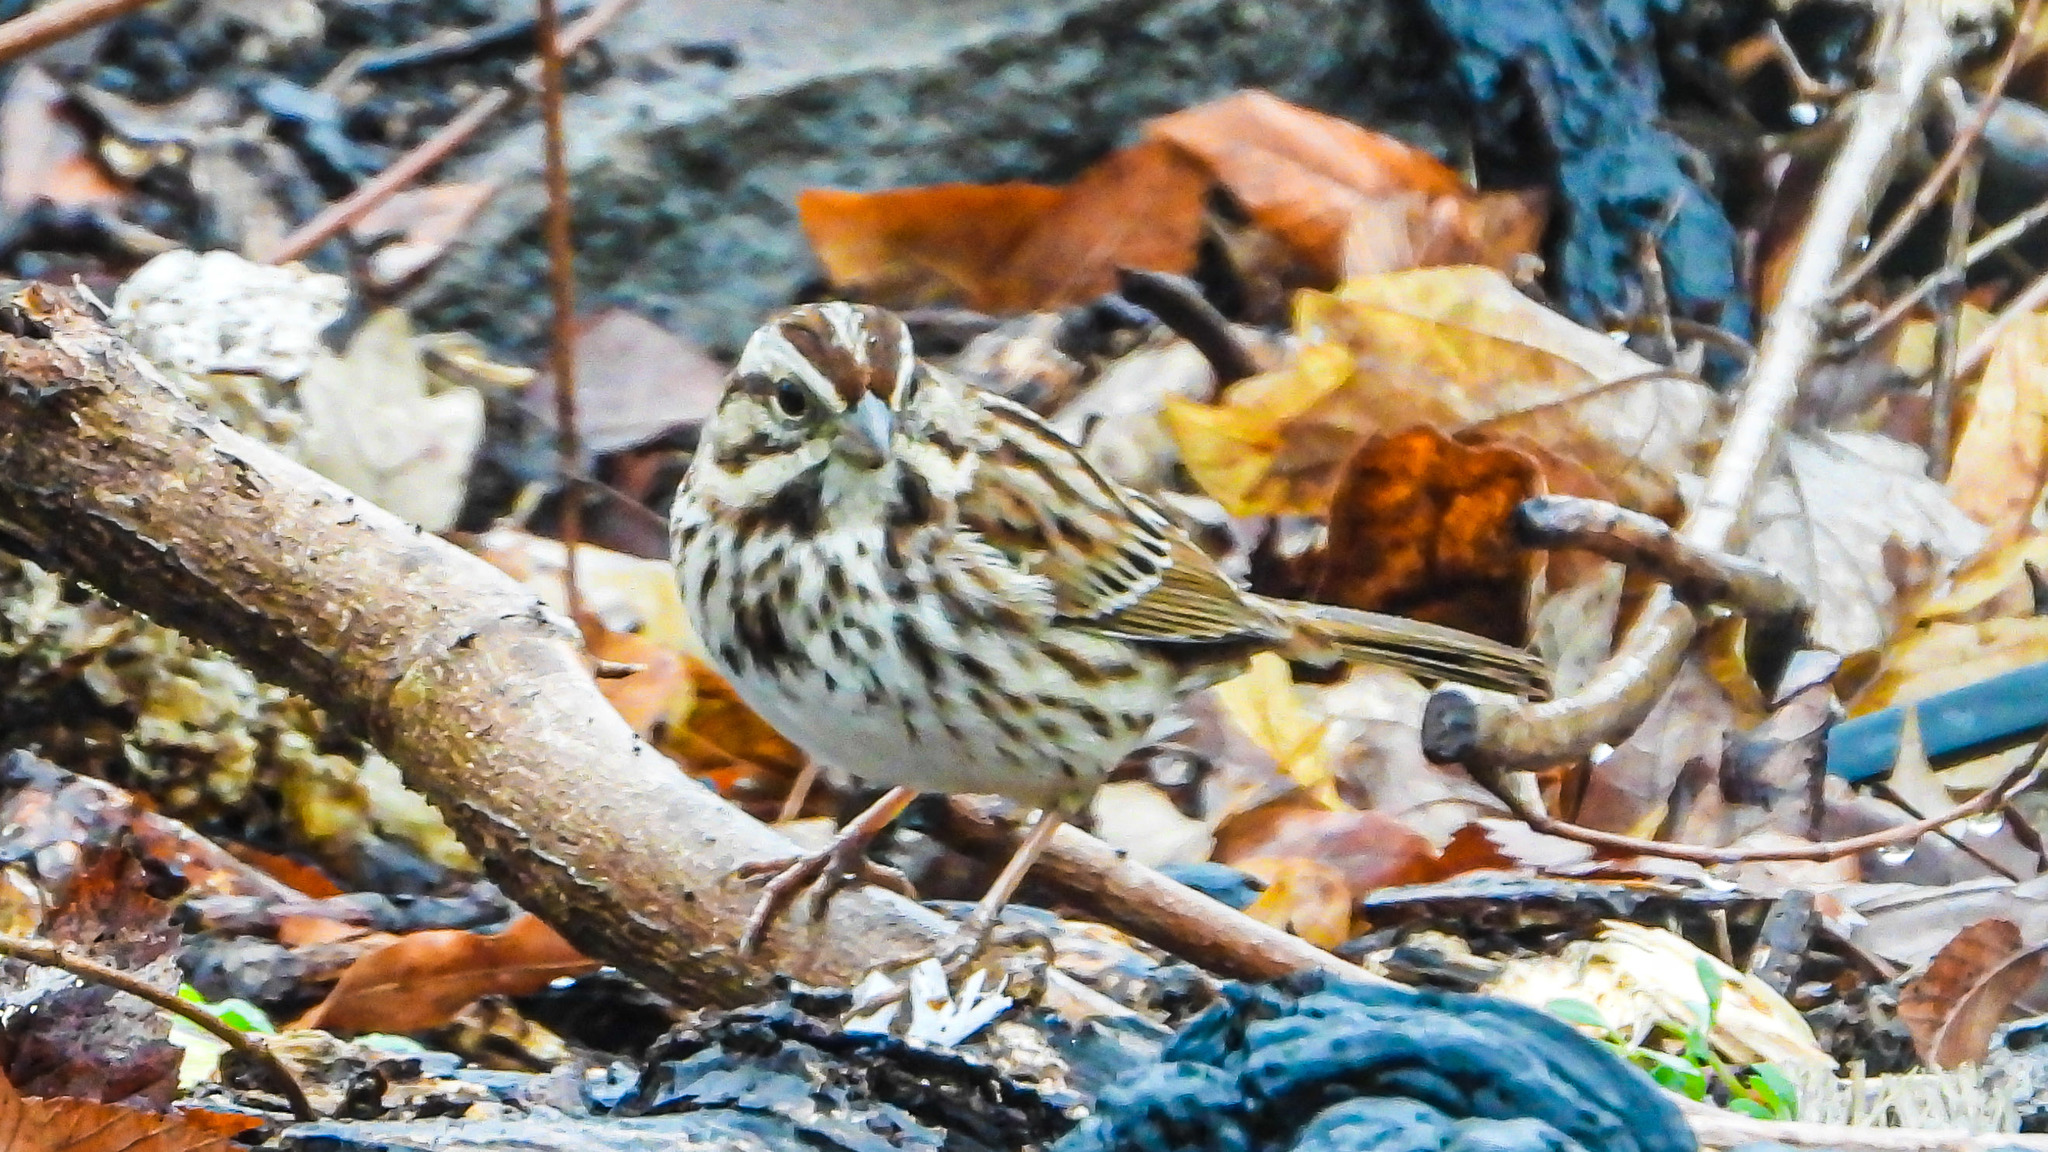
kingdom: Animalia
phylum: Chordata
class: Aves
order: Passeriformes
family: Passerellidae
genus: Melospiza
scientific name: Melospiza melodia
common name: Song sparrow
